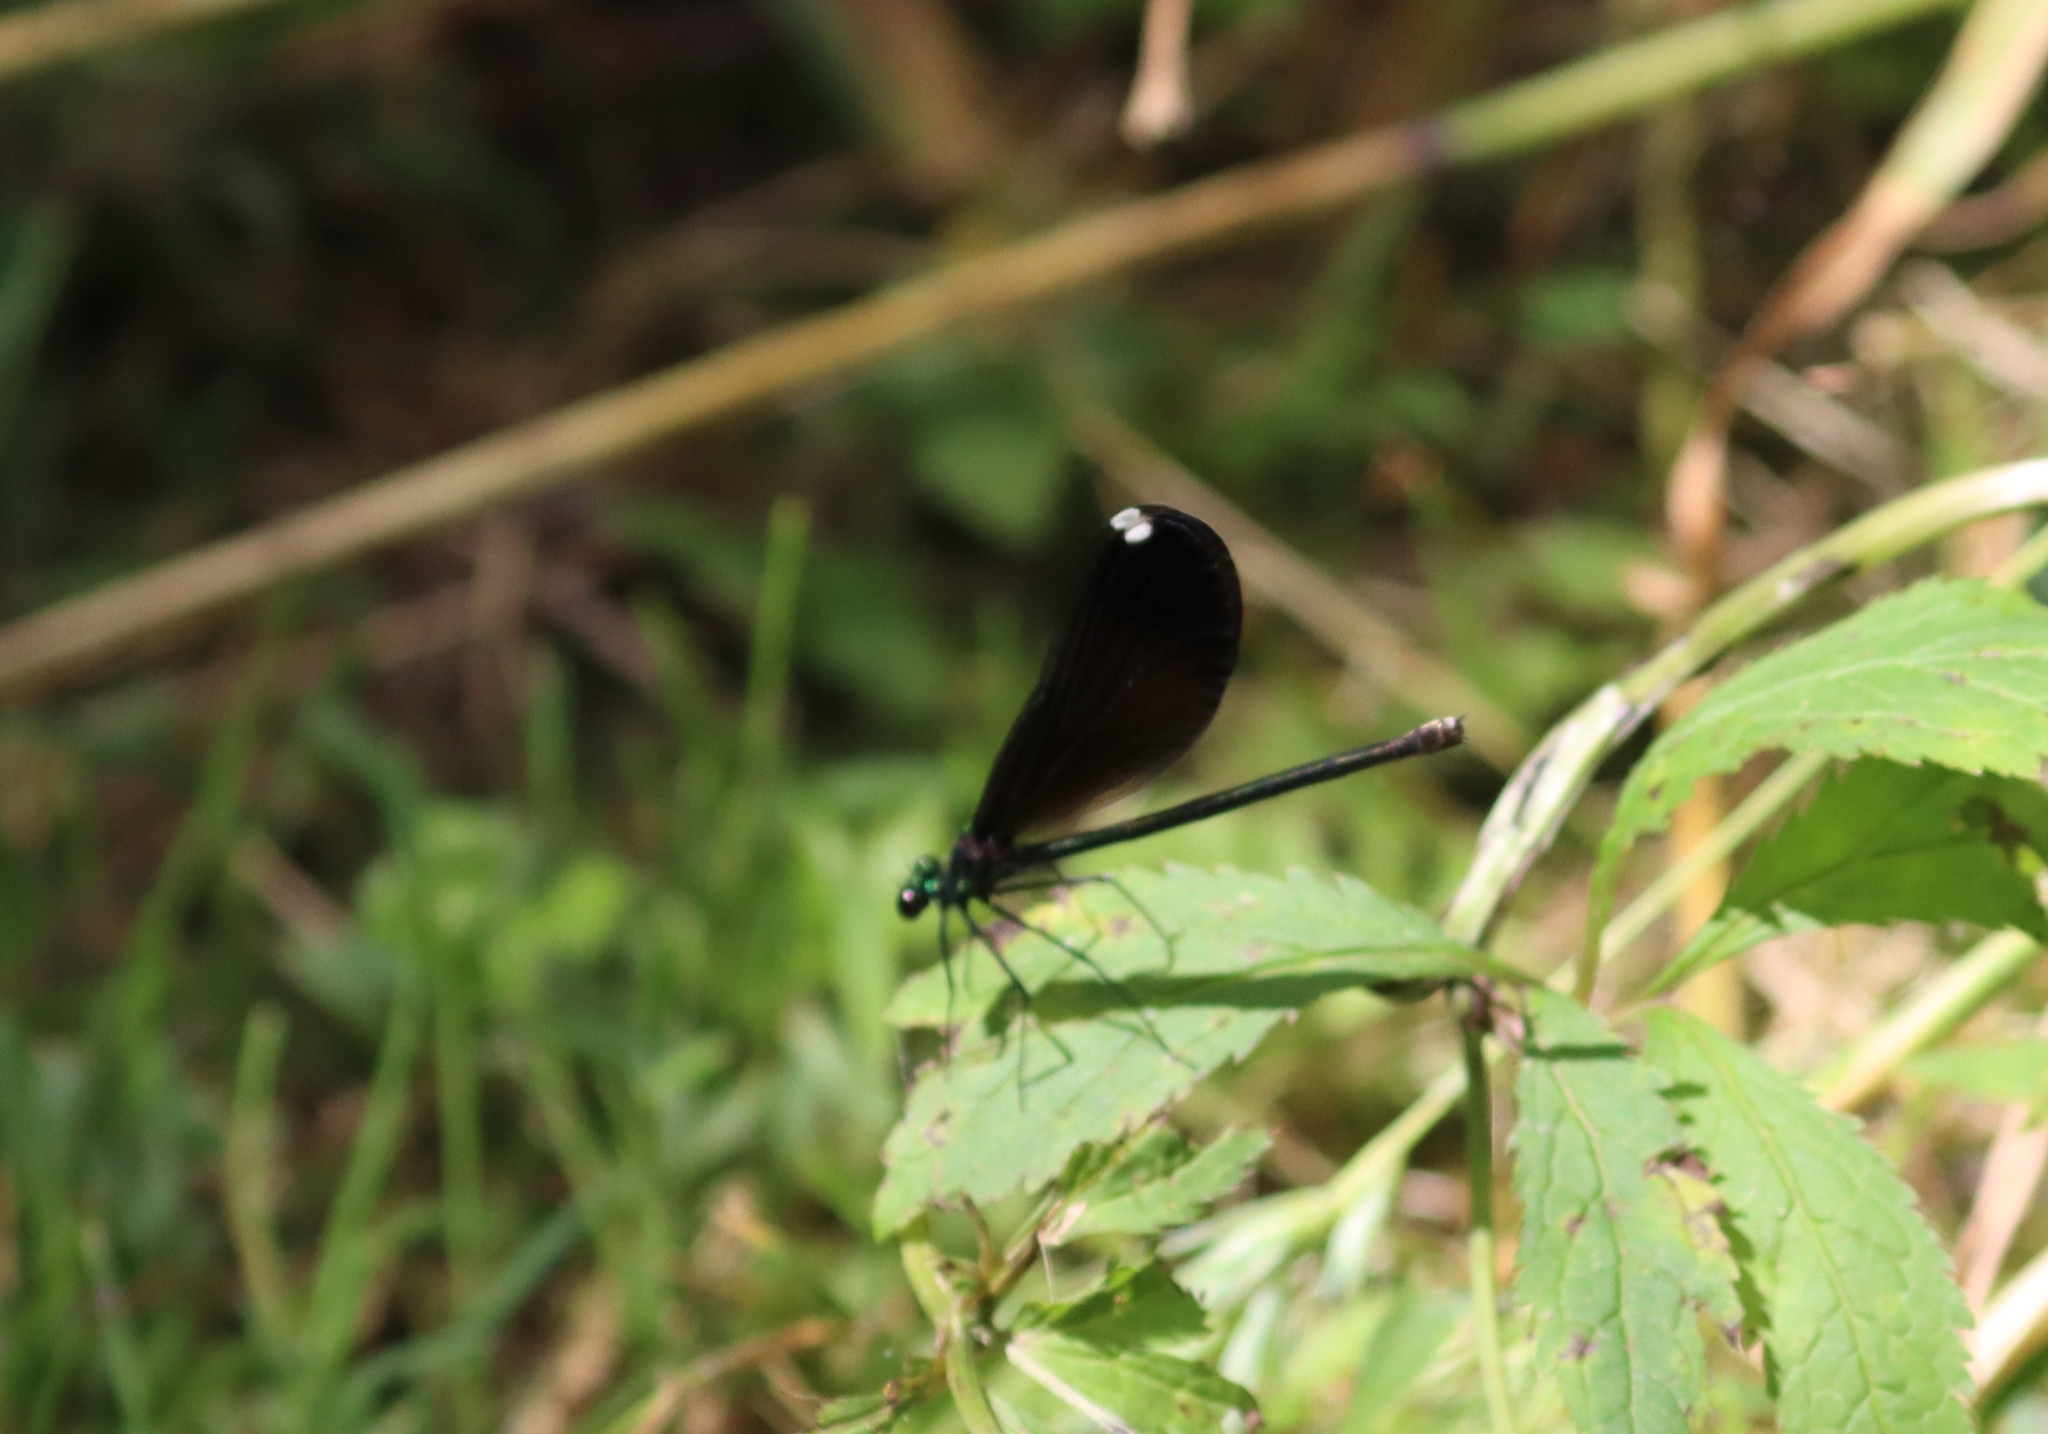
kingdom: Animalia
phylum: Arthropoda
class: Insecta
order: Odonata
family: Calopterygidae
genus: Calopteryx
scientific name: Calopteryx maculata
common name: Ebony jewelwing
